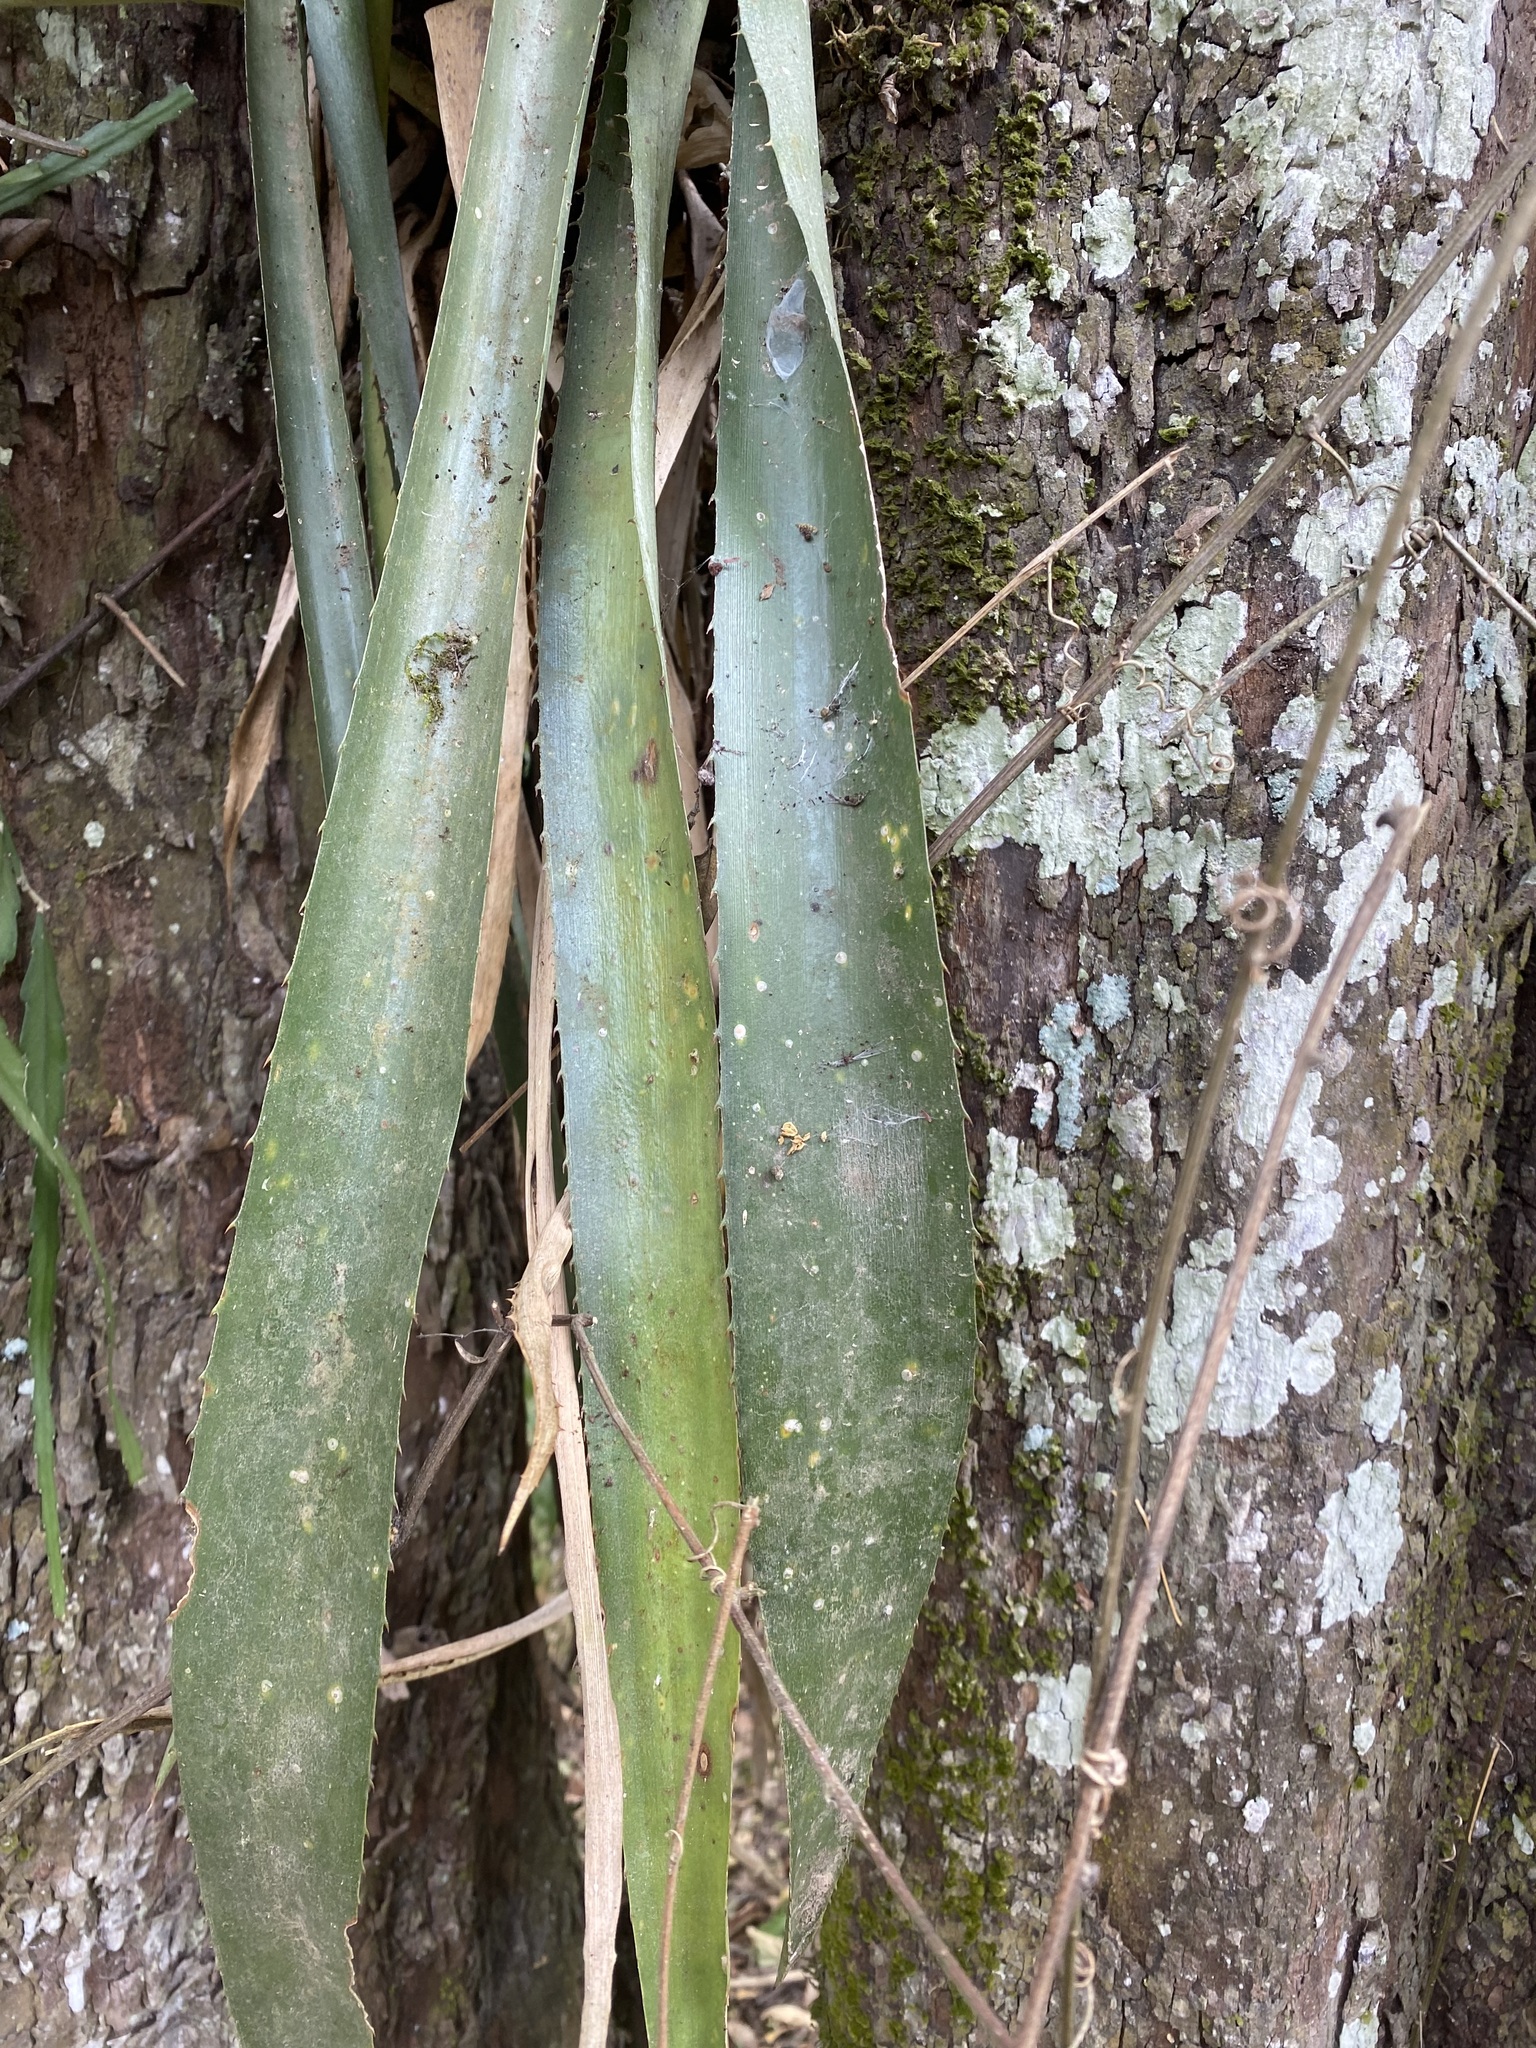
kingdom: Plantae
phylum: Tracheophyta
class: Liliopsida
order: Poales
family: Bromeliaceae
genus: Aechmea
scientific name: Aechmea distichantha
